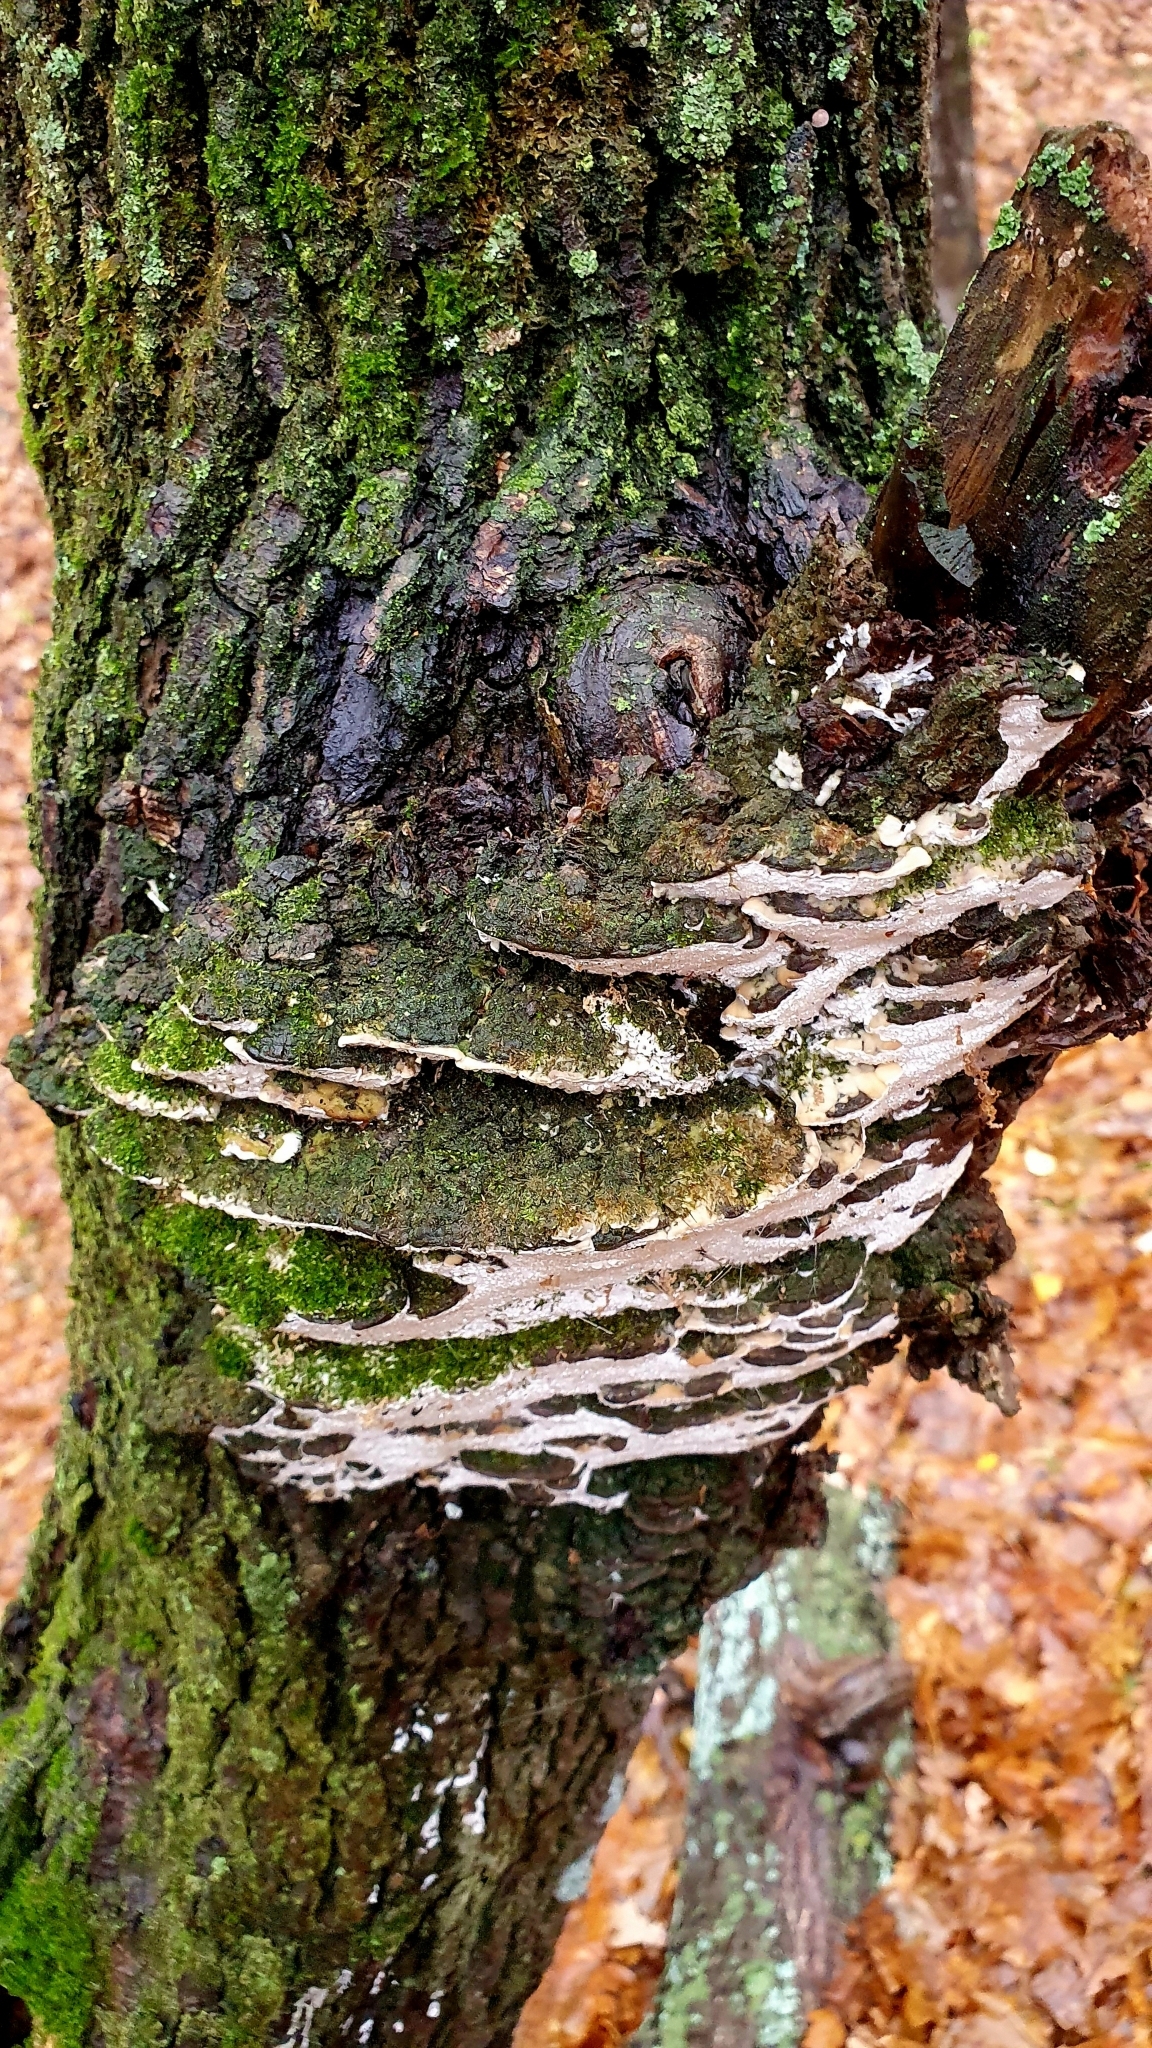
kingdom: Fungi
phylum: Basidiomycota
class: Agaricomycetes
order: Hymenochaetales
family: Oxyporaceae
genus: Oxyporus
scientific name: Oxyporus populinus
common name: Poplar bracket
